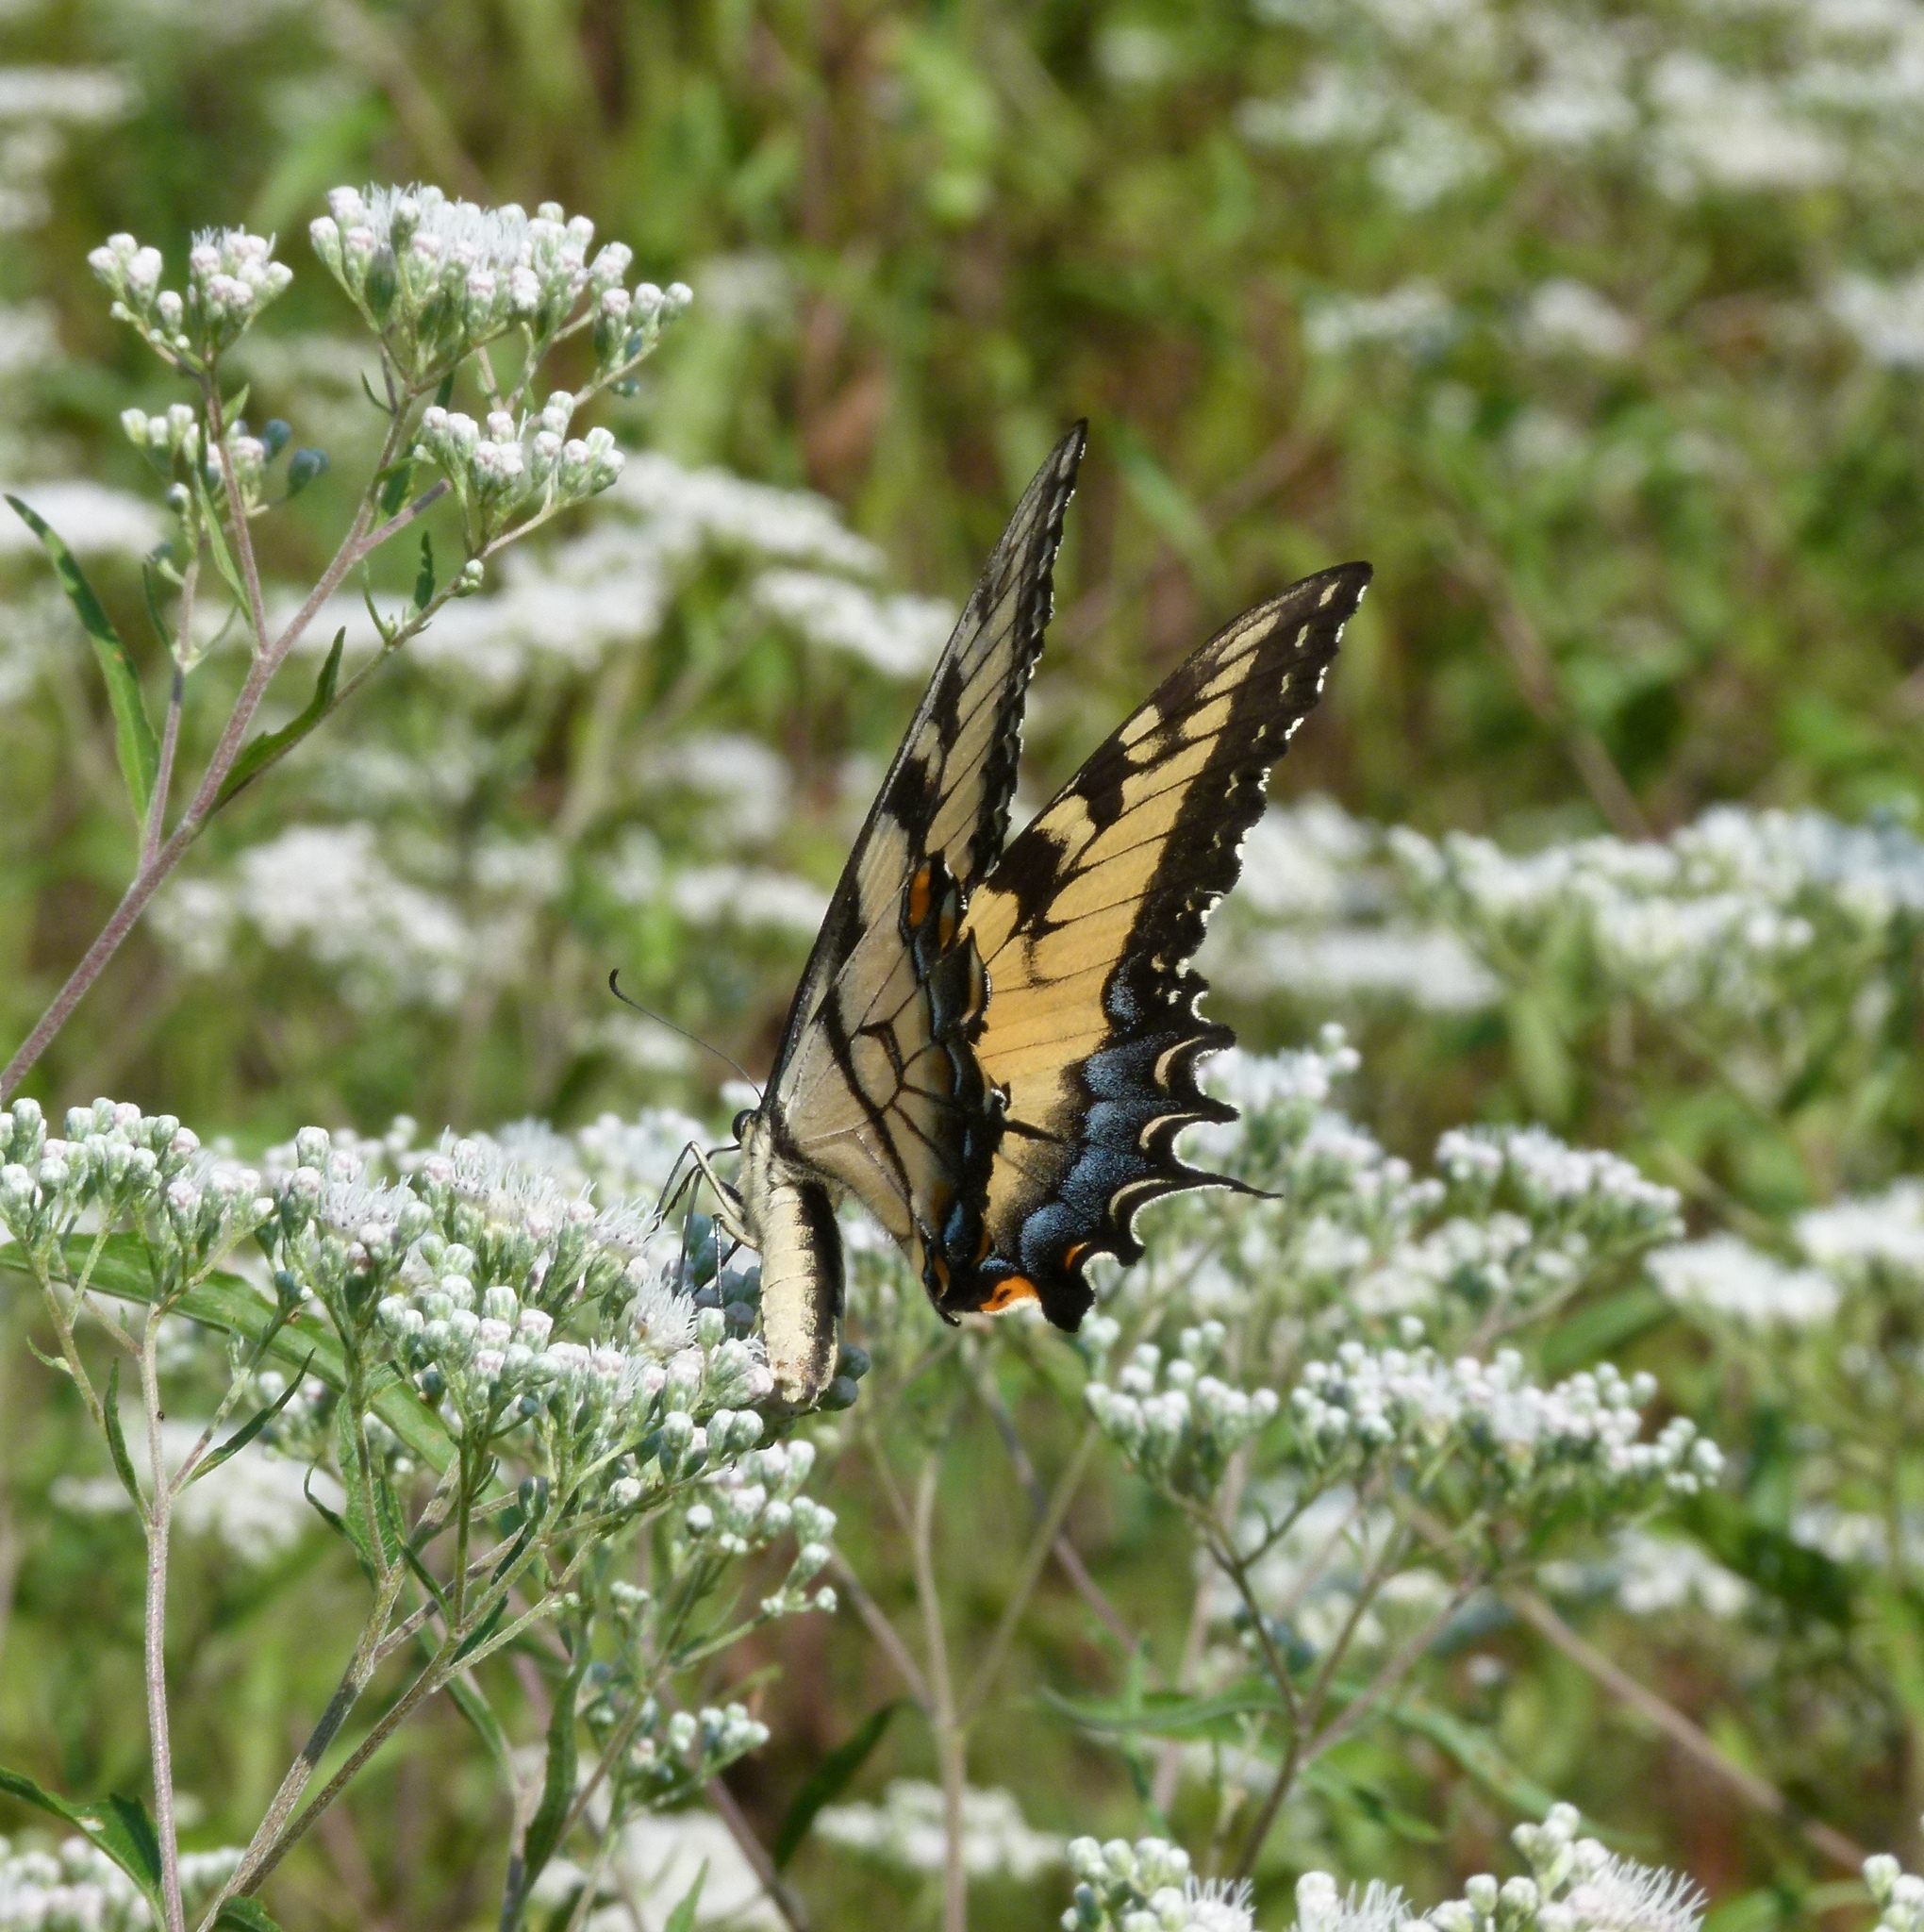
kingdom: Animalia
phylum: Arthropoda
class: Insecta
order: Lepidoptera
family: Papilionidae
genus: Papilio
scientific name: Papilio glaucus
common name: Tiger swallowtail
